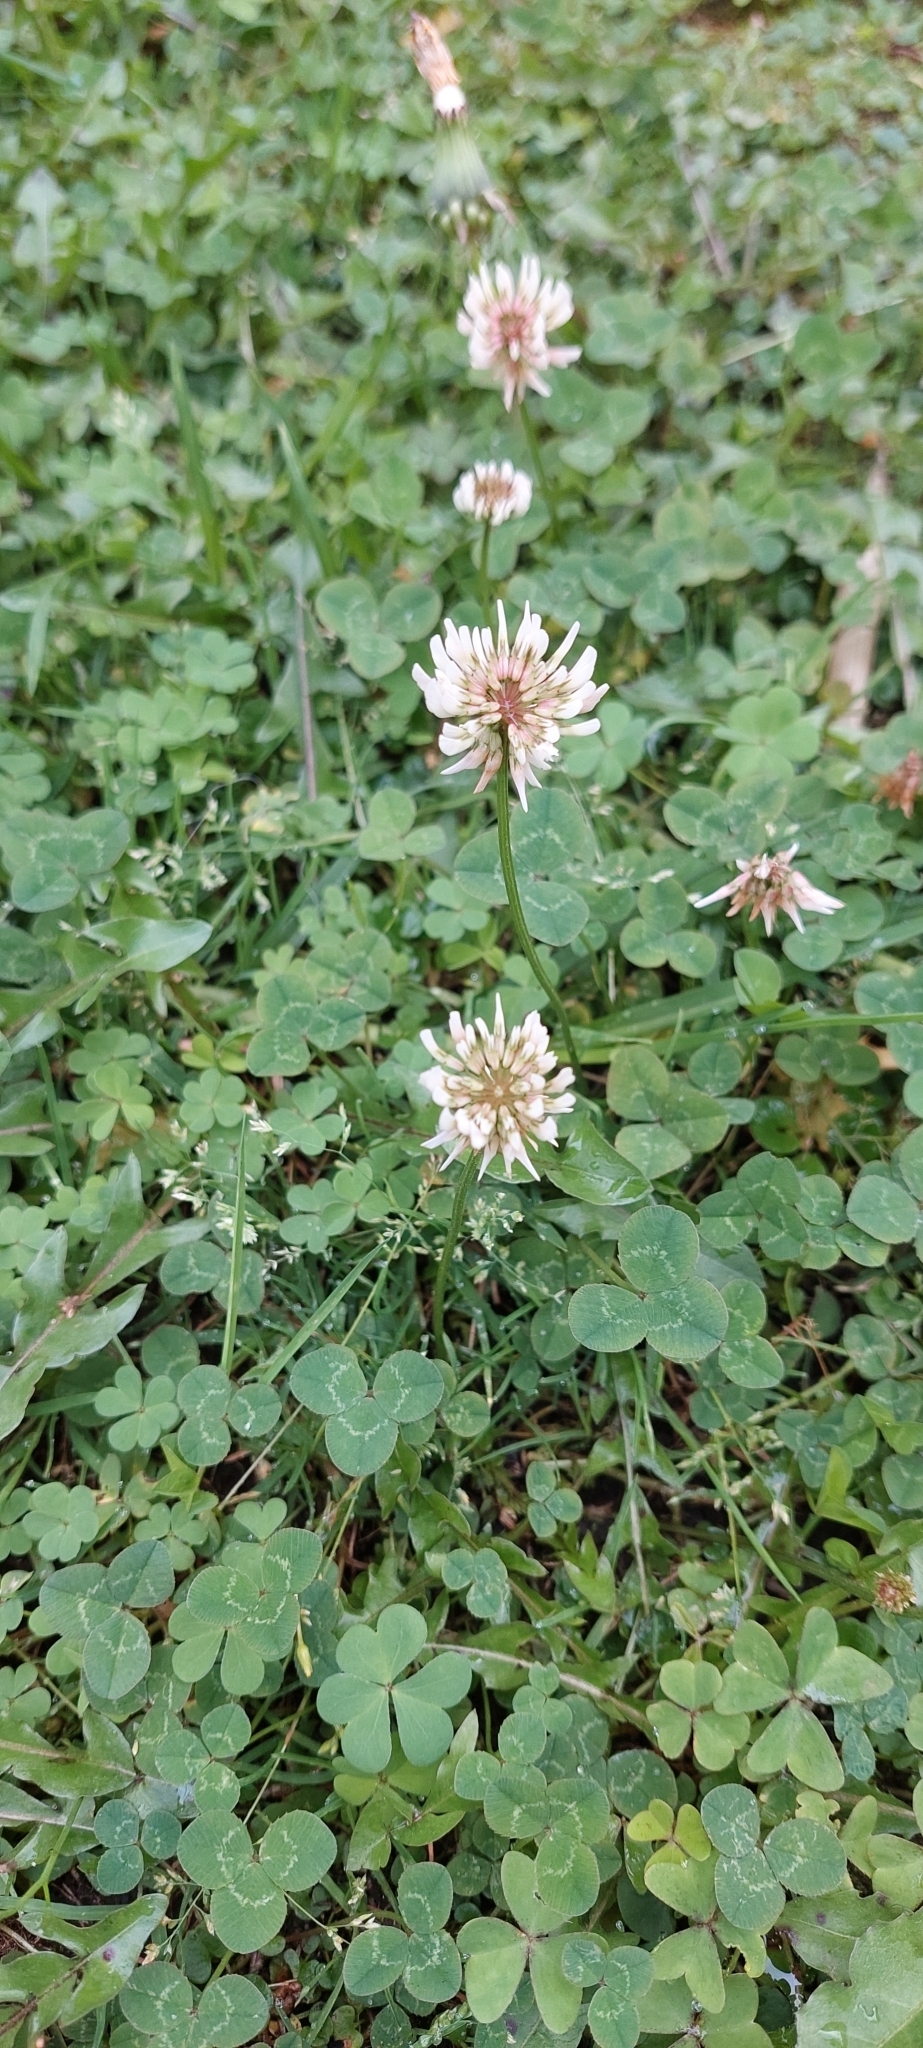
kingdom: Plantae
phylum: Tracheophyta
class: Magnoliopsida
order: Fabales
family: Fabaceae
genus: Trifolium
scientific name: Trifolium repens
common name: White clover
